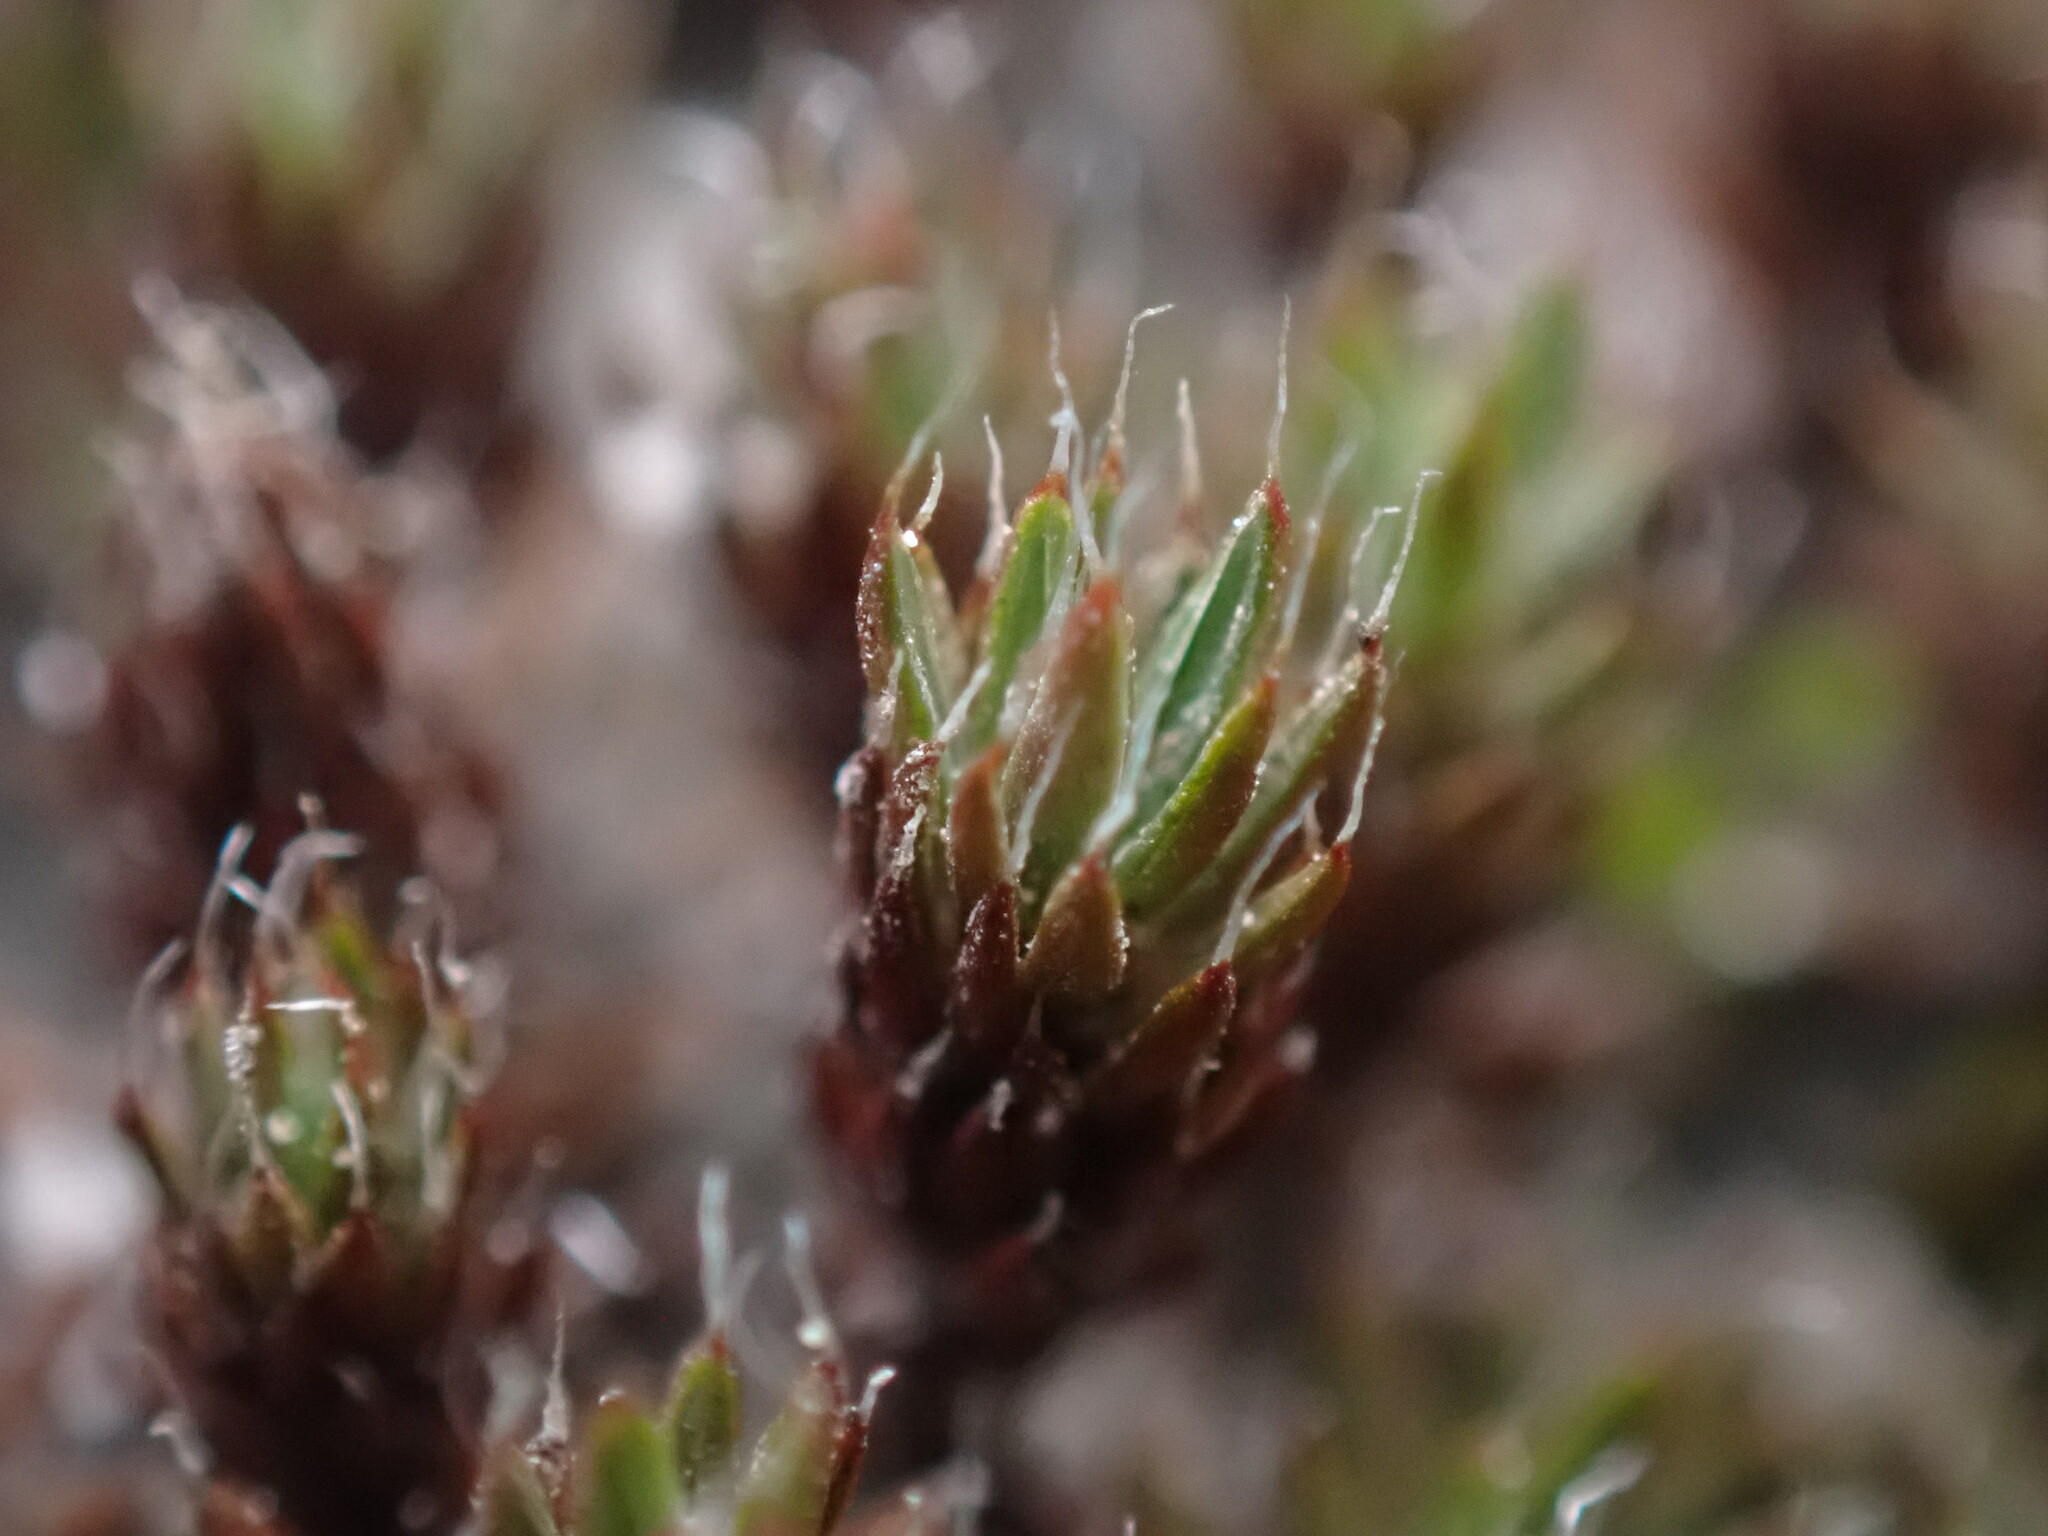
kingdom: Plantae
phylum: Bryophyta
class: Polytrichopsida
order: Polytrichales
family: Polytrichaceae
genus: Polytrichum
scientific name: Polytrichum piliferum
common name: Bristly haircap
